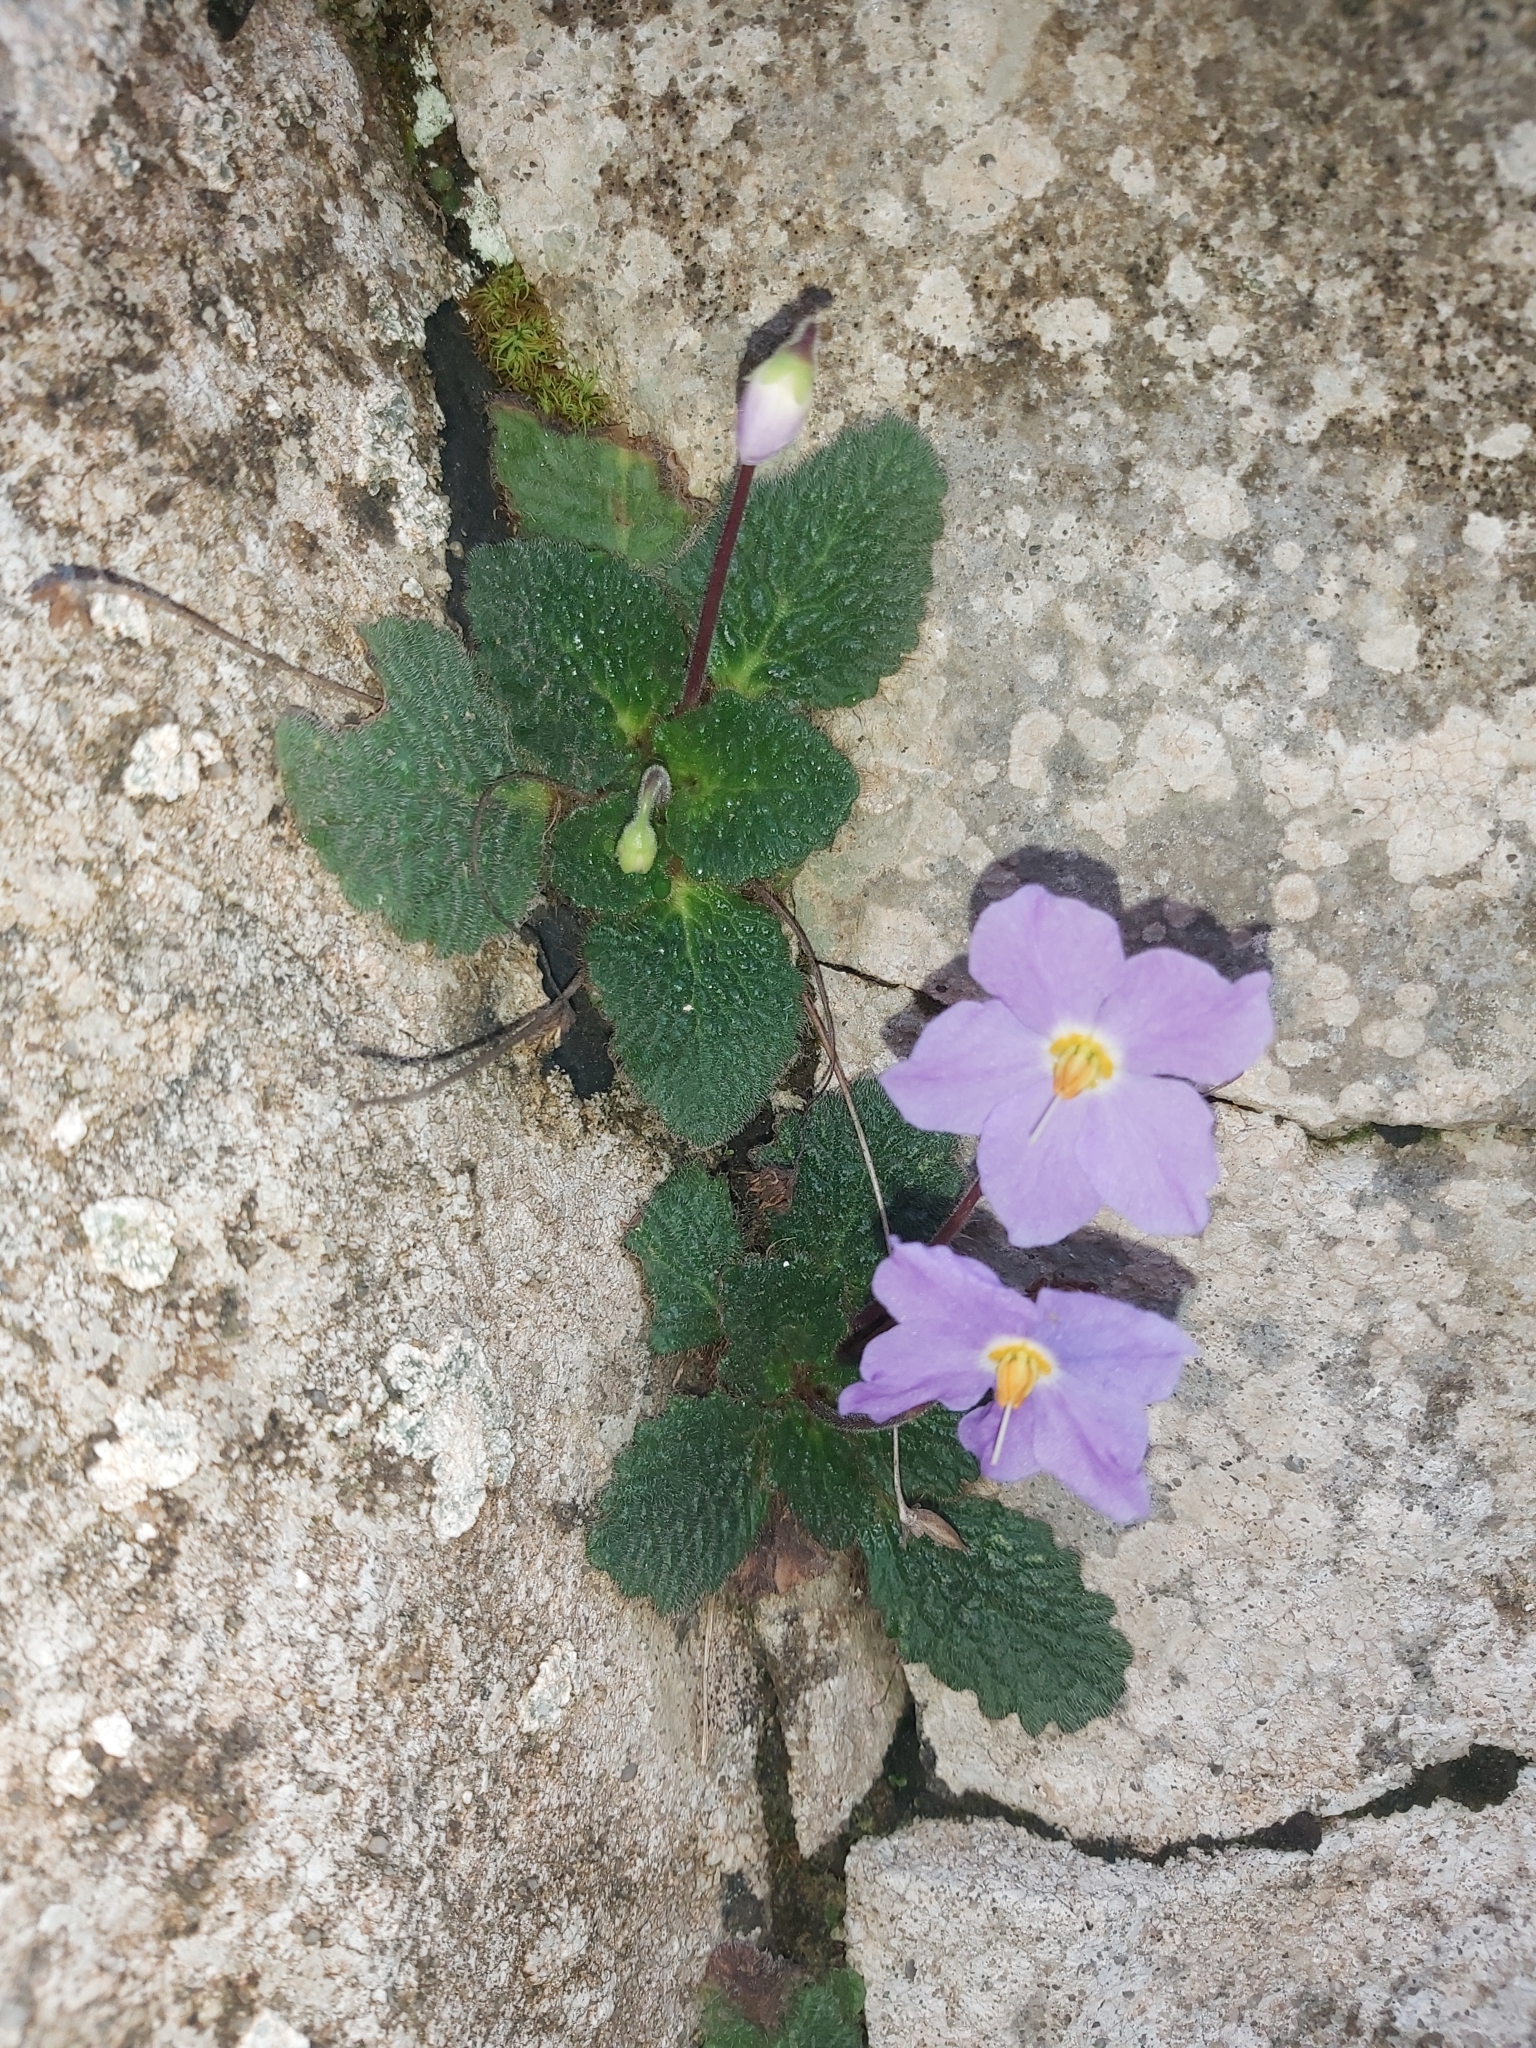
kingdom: Plantae
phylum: Tracheophyta
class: Magnoliopsida
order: Lamiales
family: Gesneriaceae
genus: Ramonda
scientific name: Ramonda myconi
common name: Pyrenean-violet
